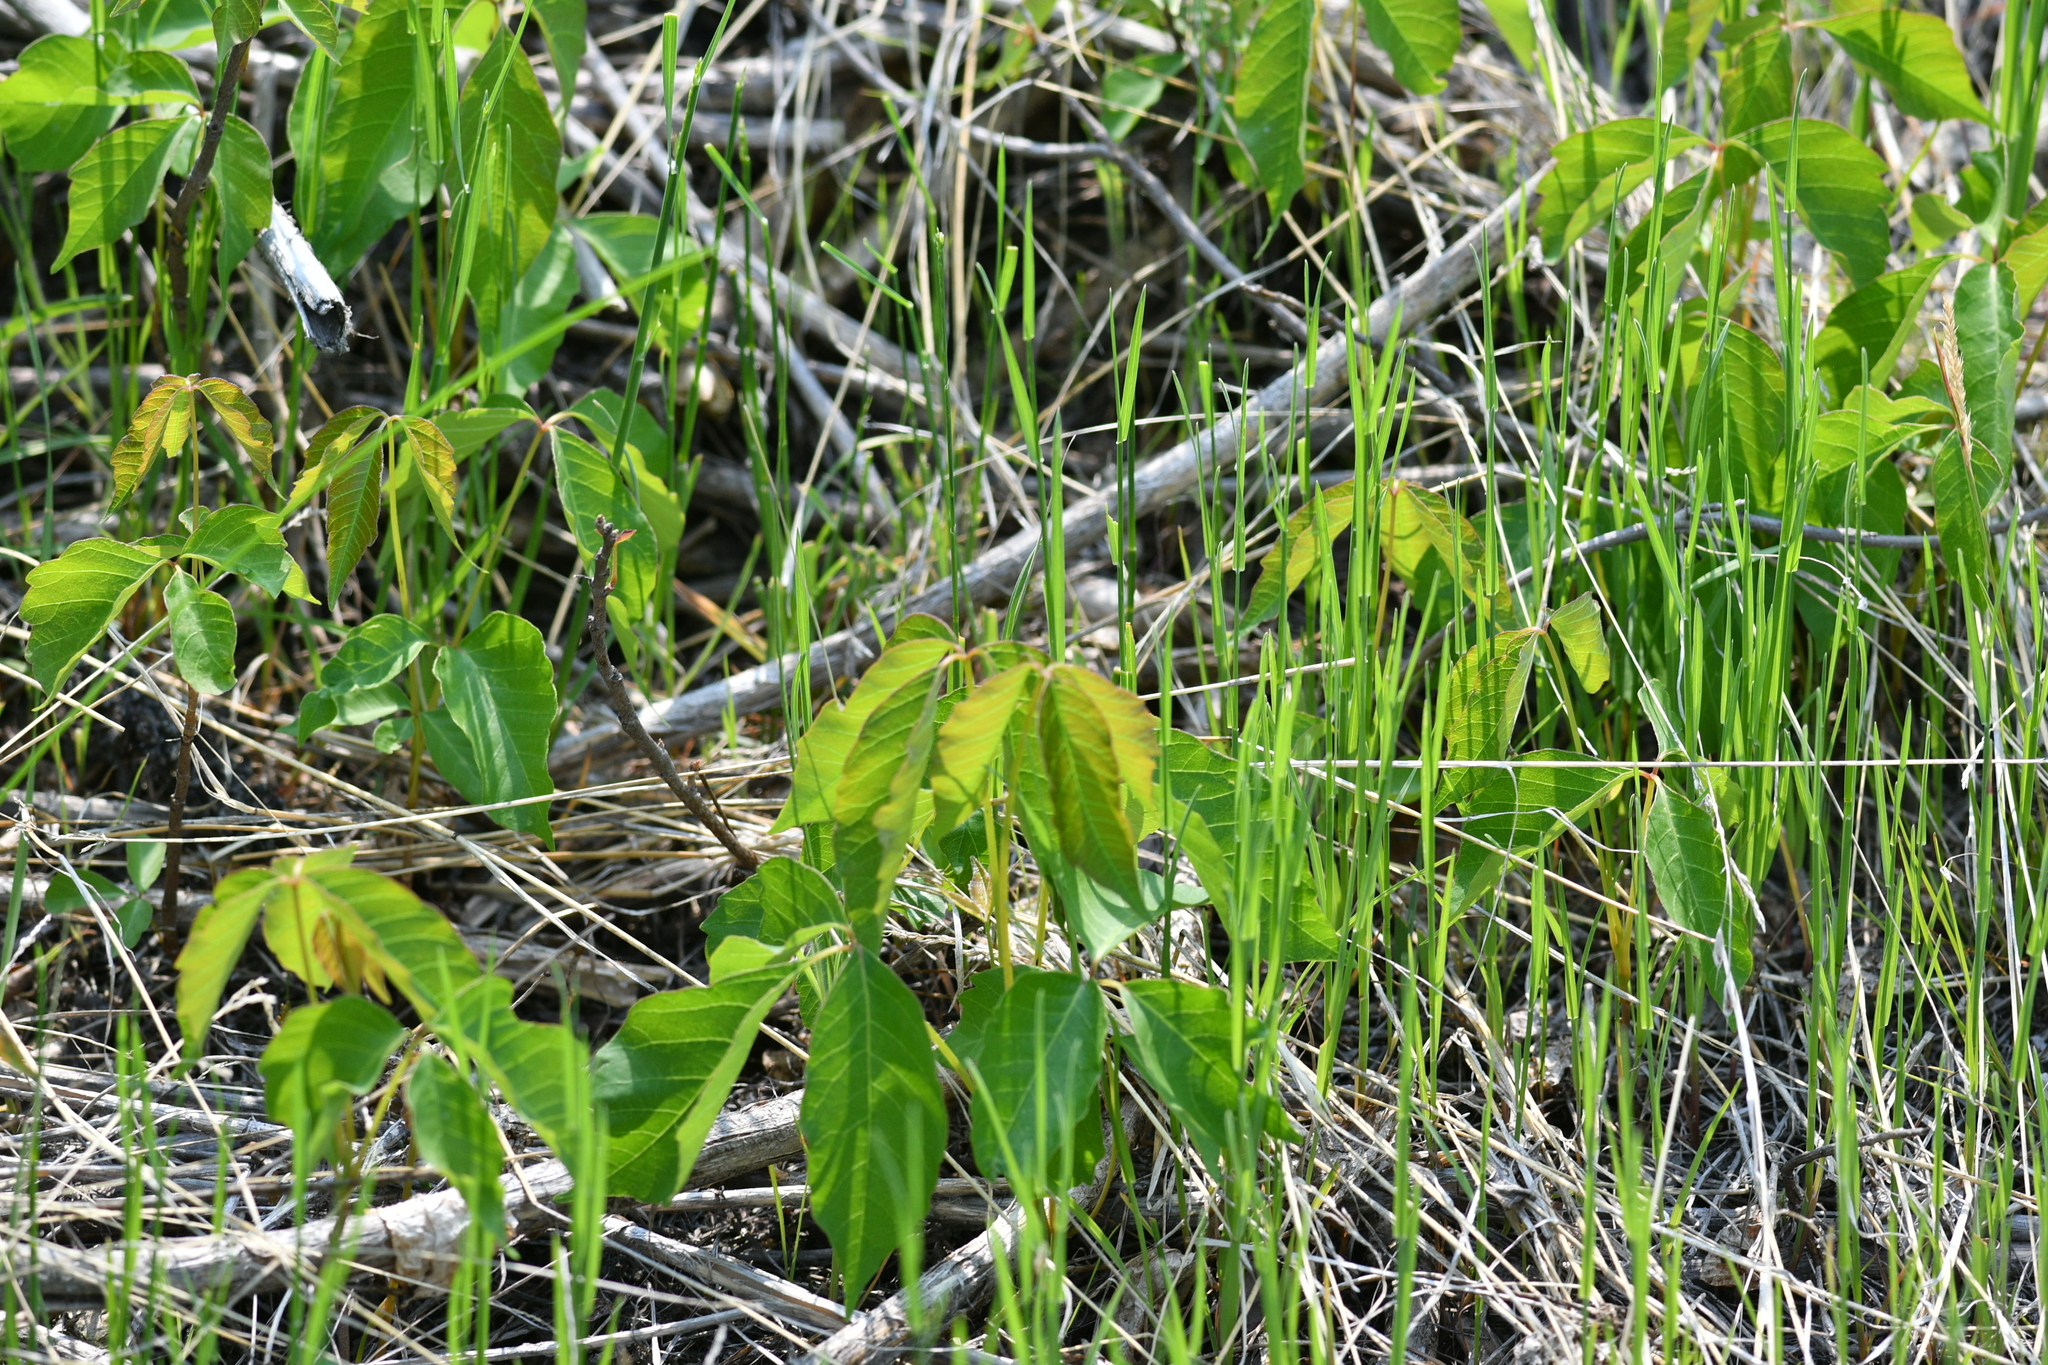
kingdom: Plantae
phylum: Tracheophyta
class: Magnoliopsida
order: Sapindales
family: Anacardiaceae
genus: Toxicodendron
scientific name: Toxicodendron rydbergii
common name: Rydberg's poison-ivy
